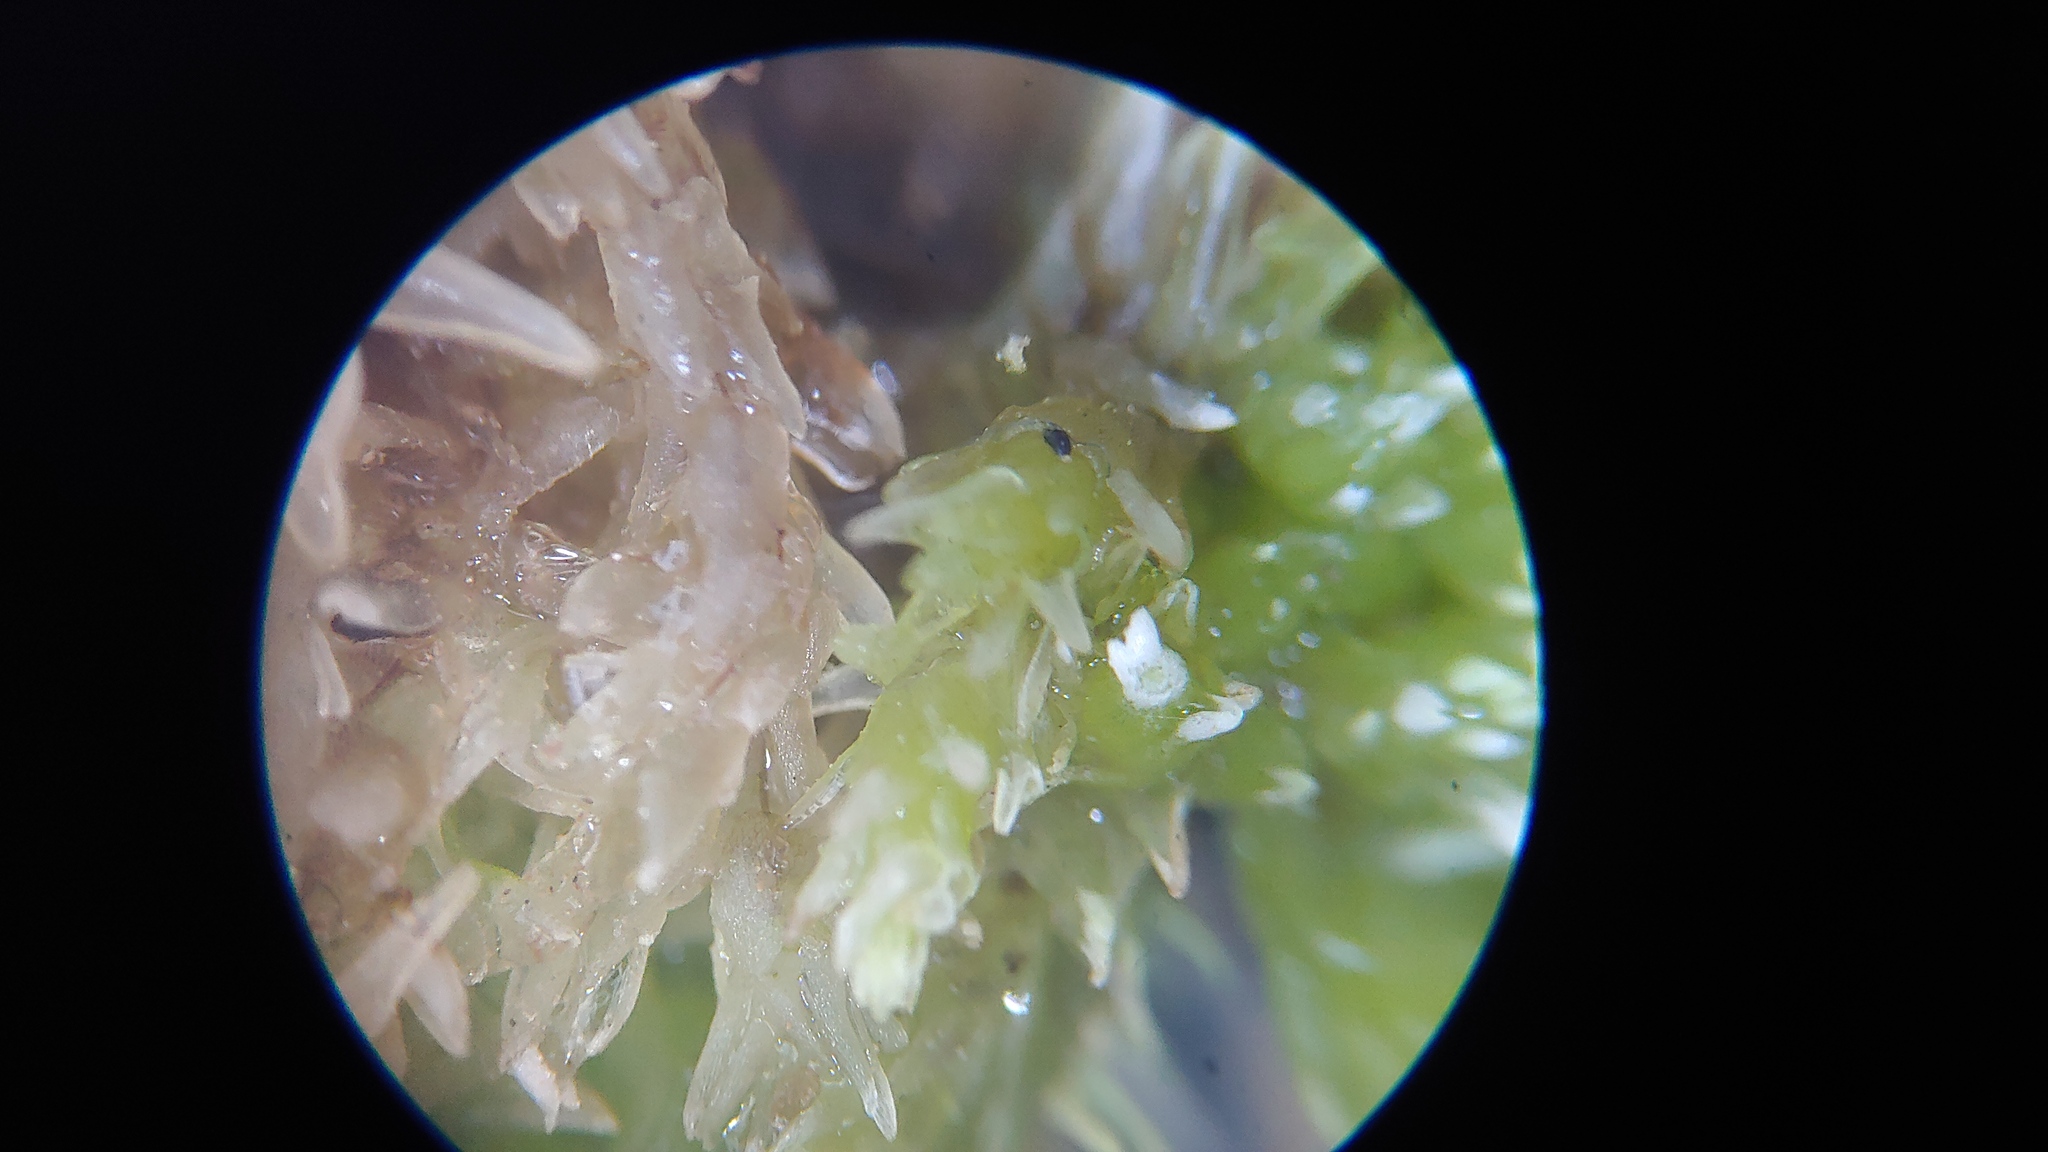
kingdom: Plantae
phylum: Bryophyta
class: Sphagnopsida
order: Sphagnales
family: Sphagnaceae
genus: Sphagnum
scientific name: Sphagnum compactum
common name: Compact peat moss
